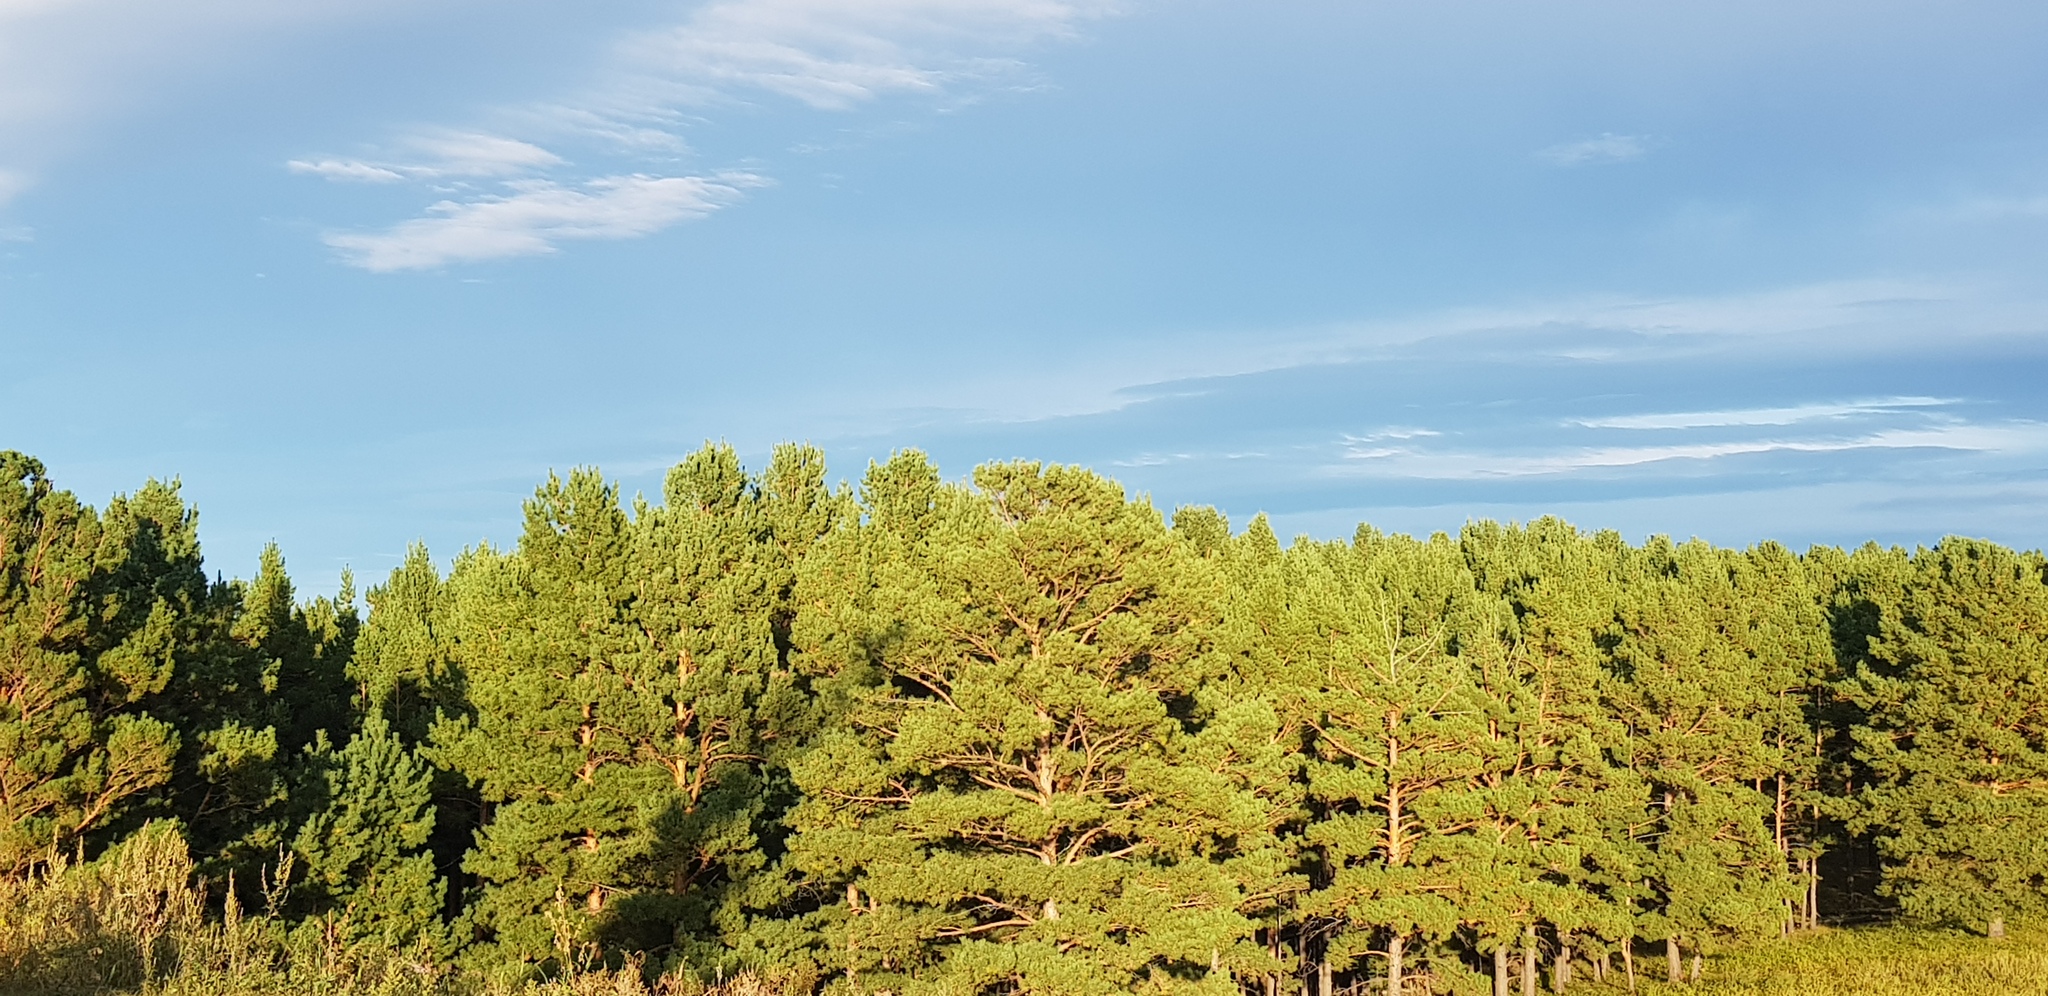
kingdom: Plantae
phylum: Tracheophyta
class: Pinopsida
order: Pinales
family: Pinaceae
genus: Pinus
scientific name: Pinus sylvestris
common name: Scots pine
